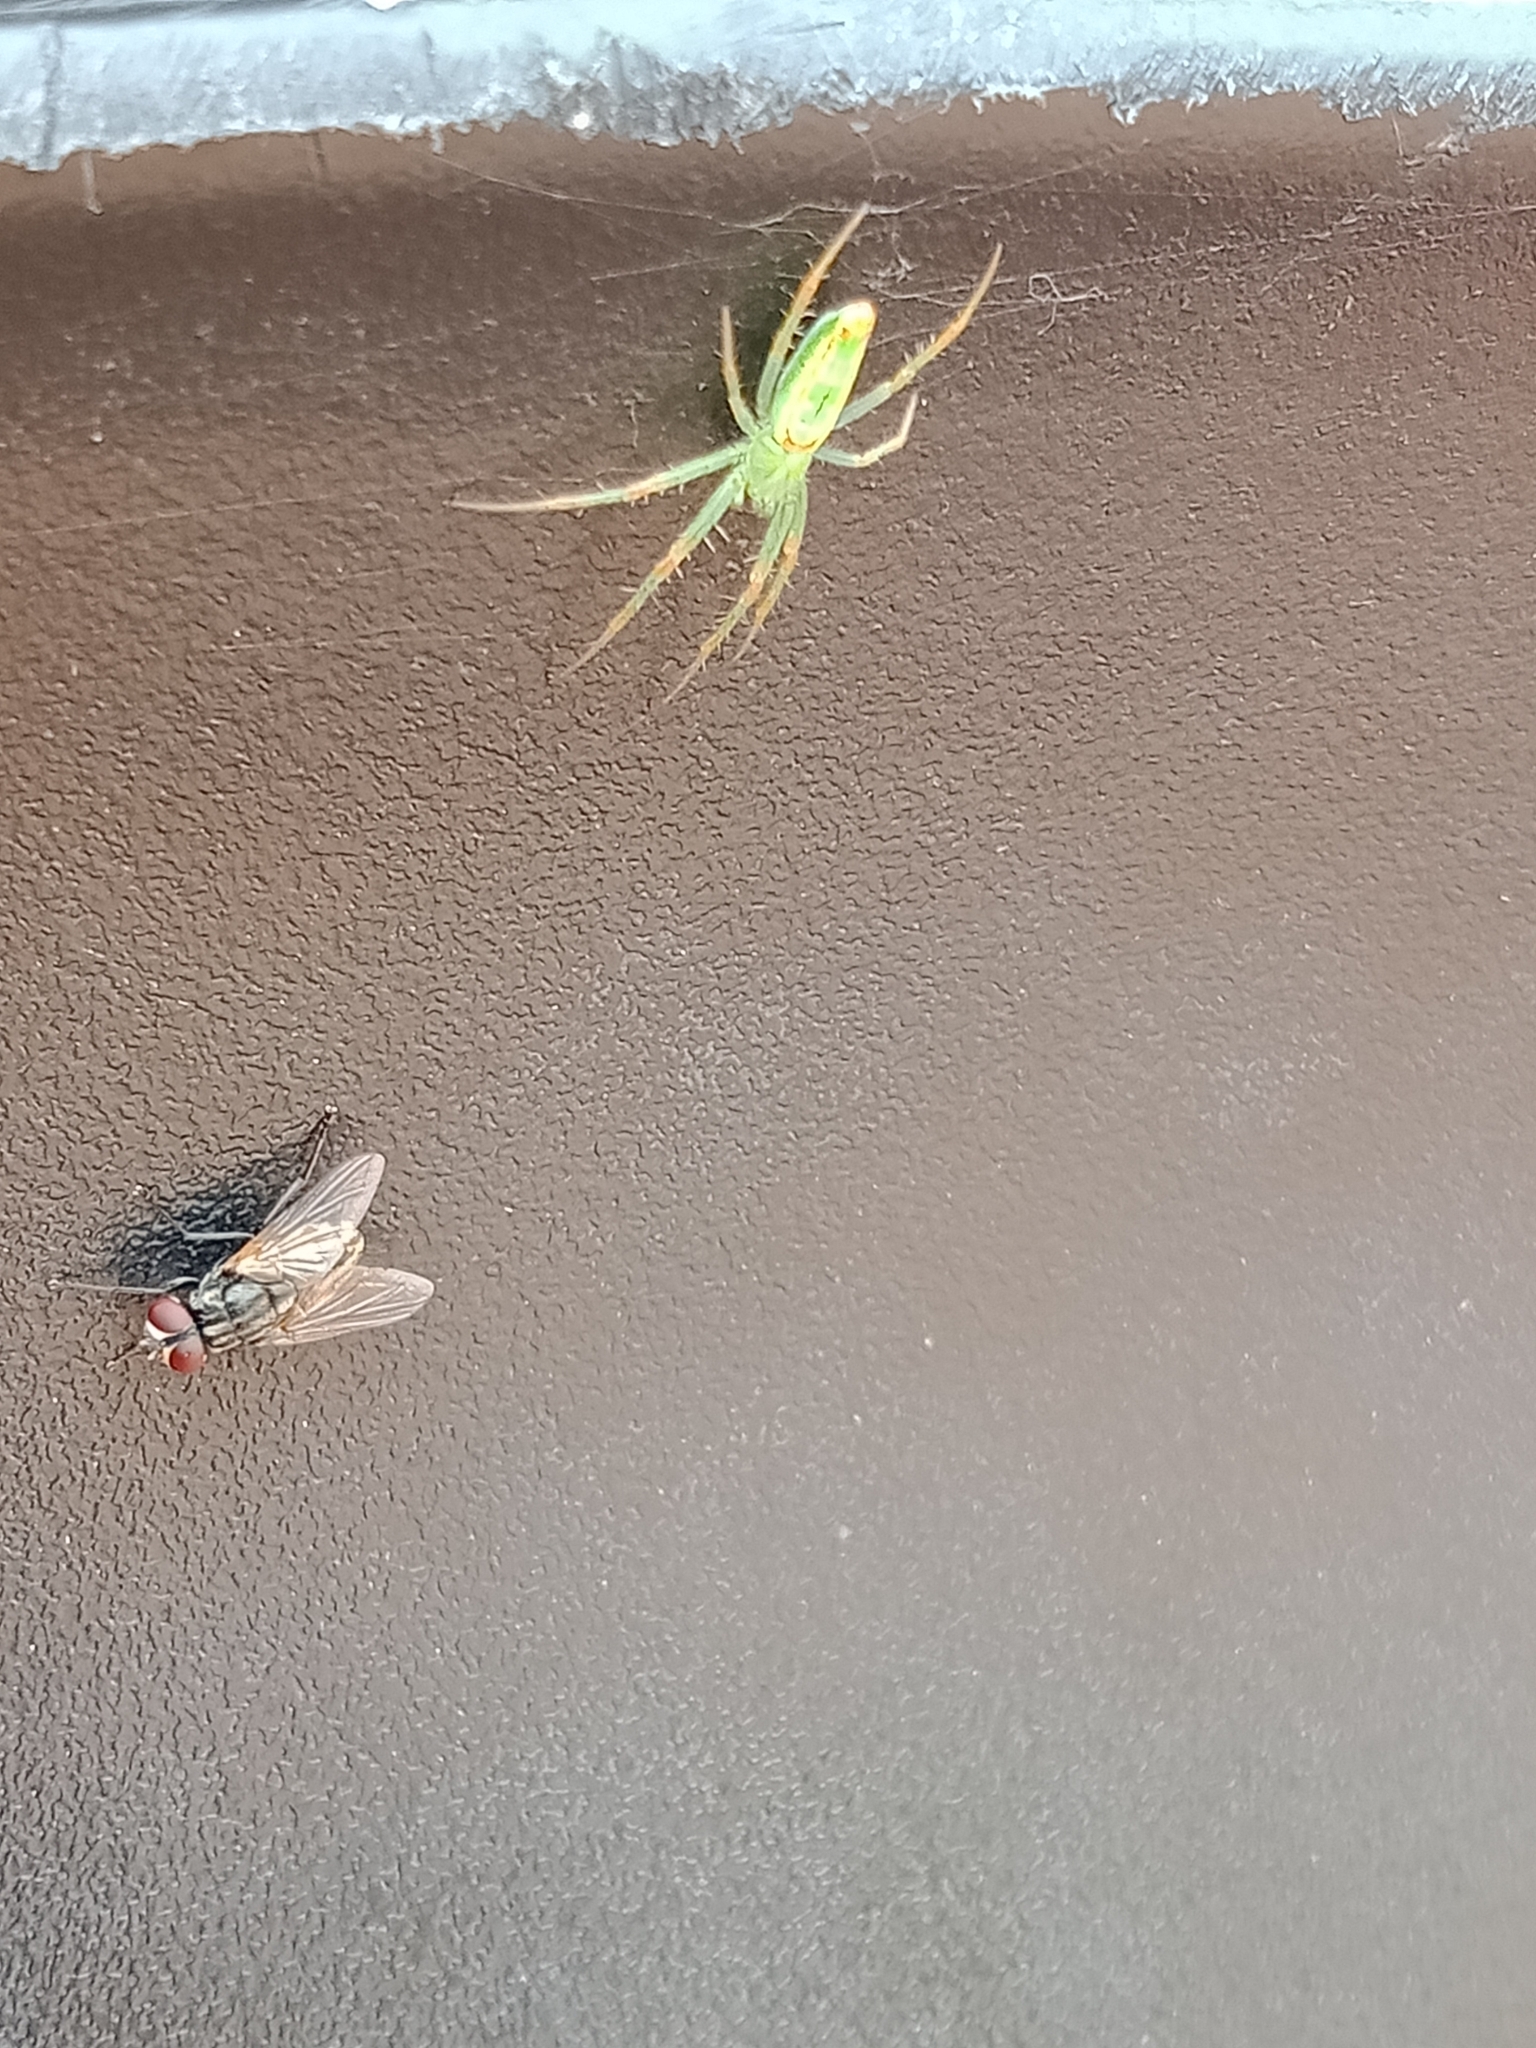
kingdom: Animalia
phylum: Arthropoda
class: Arachnida
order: Araneae
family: Araneidae
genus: Araneus
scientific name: Araneus talipedatus
